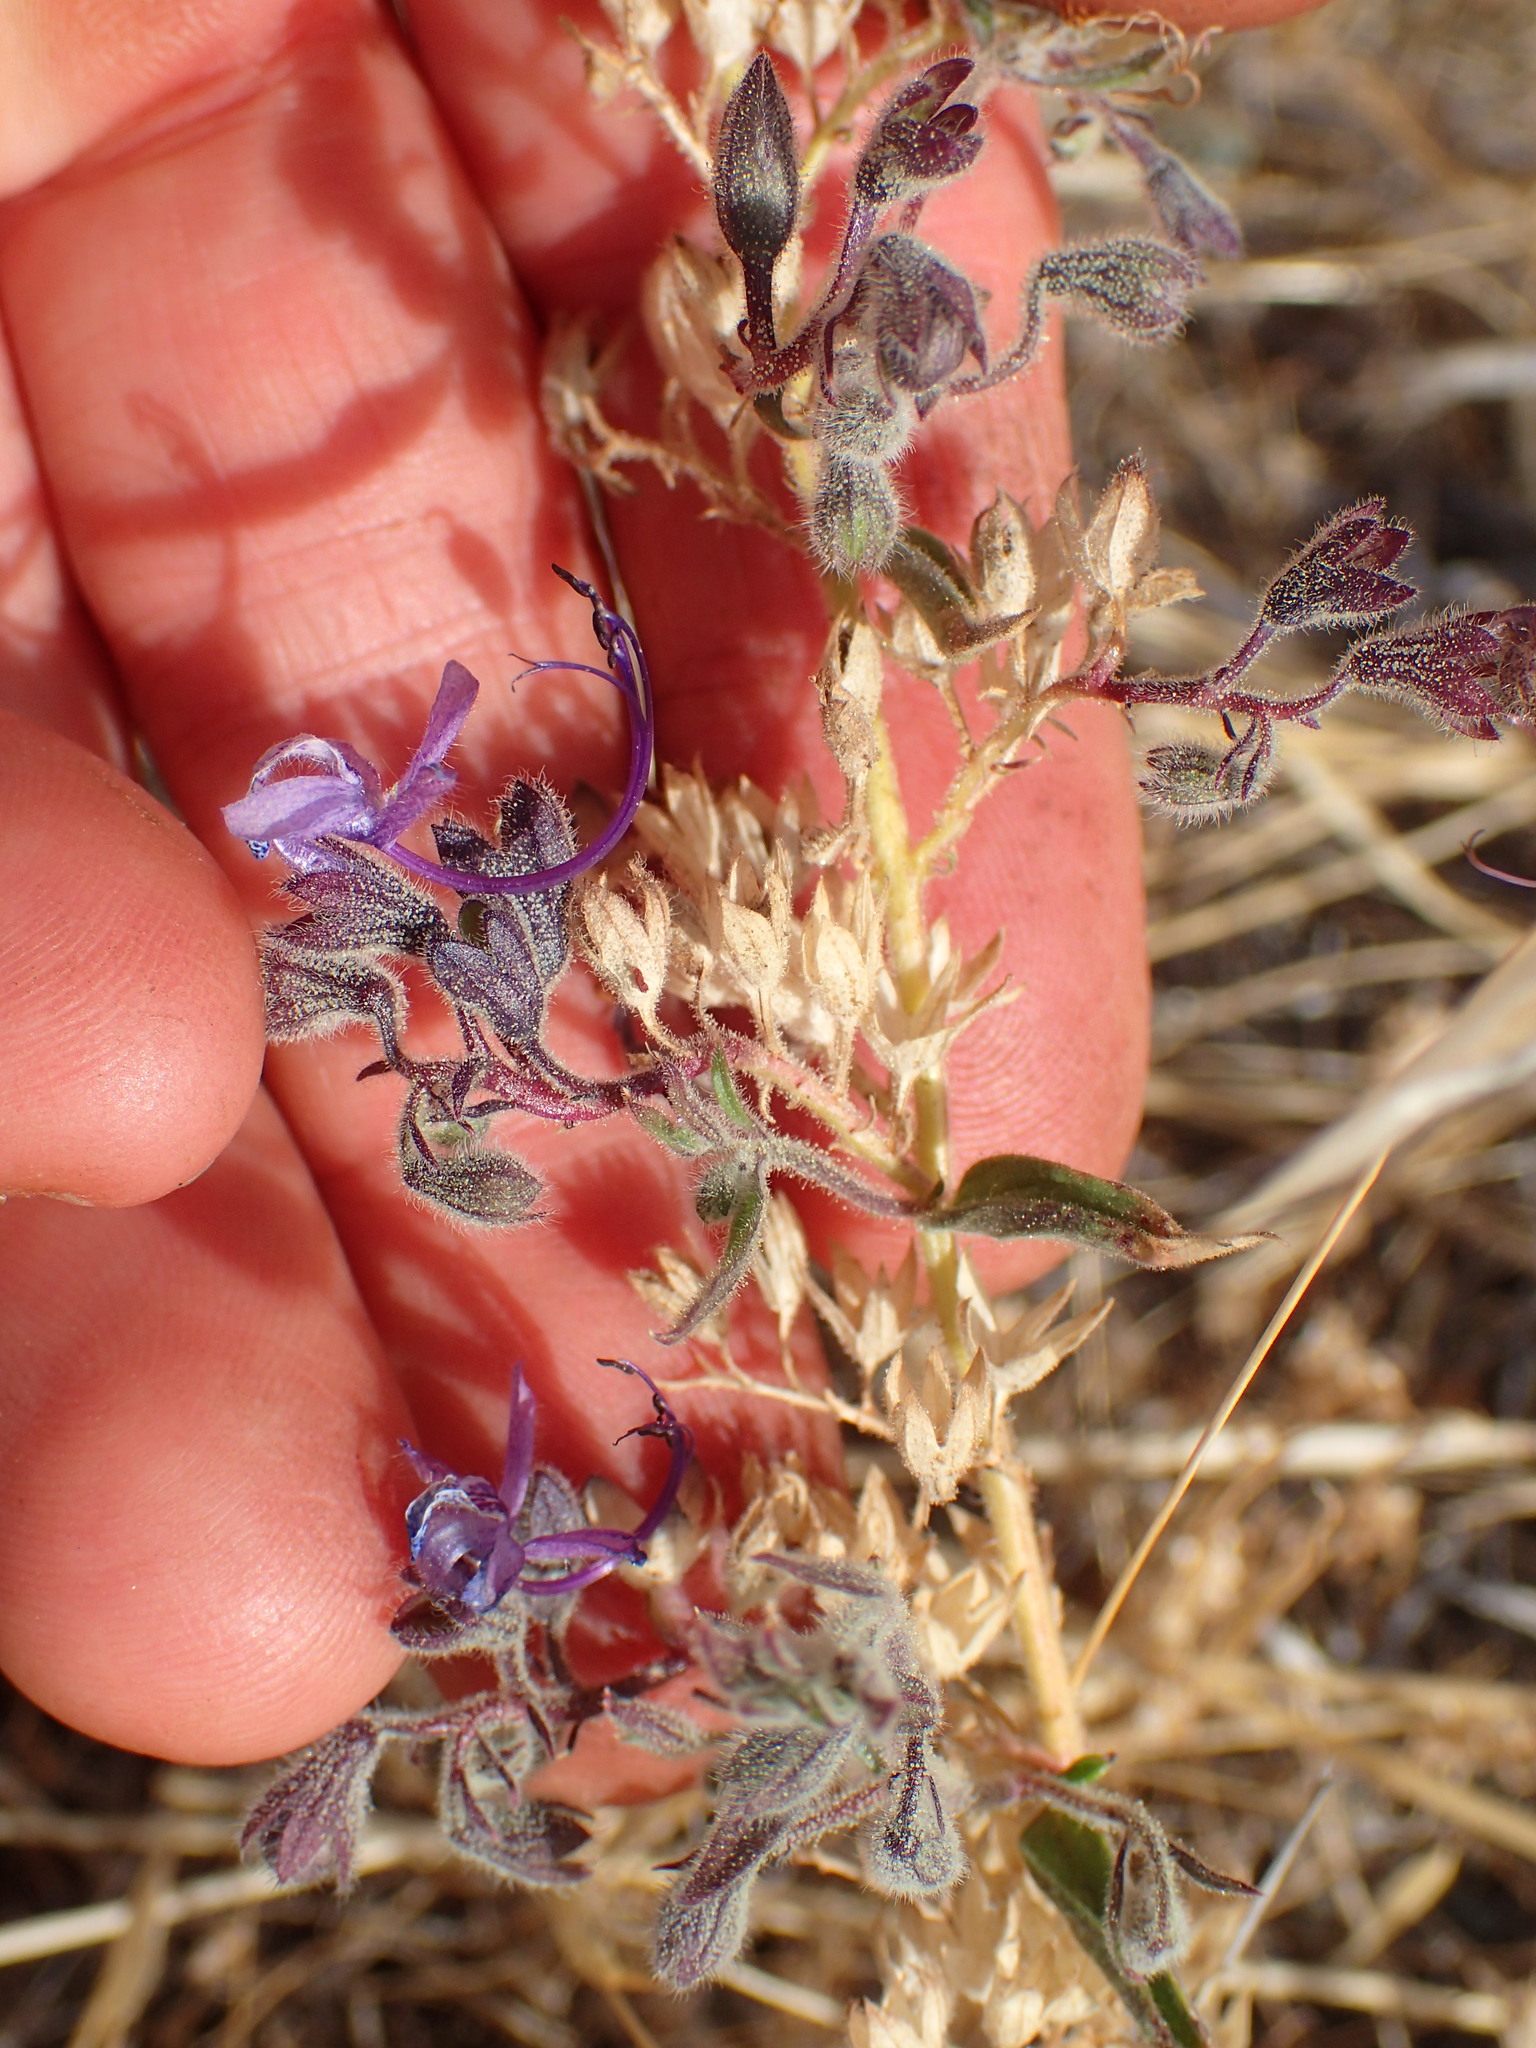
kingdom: Plantae
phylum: Tracheophyta
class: Magnoliopsida
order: Lamiales
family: Lamiaceae
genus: Trichostema
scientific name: Trichostema lanceolatum
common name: Vinegar-weed
